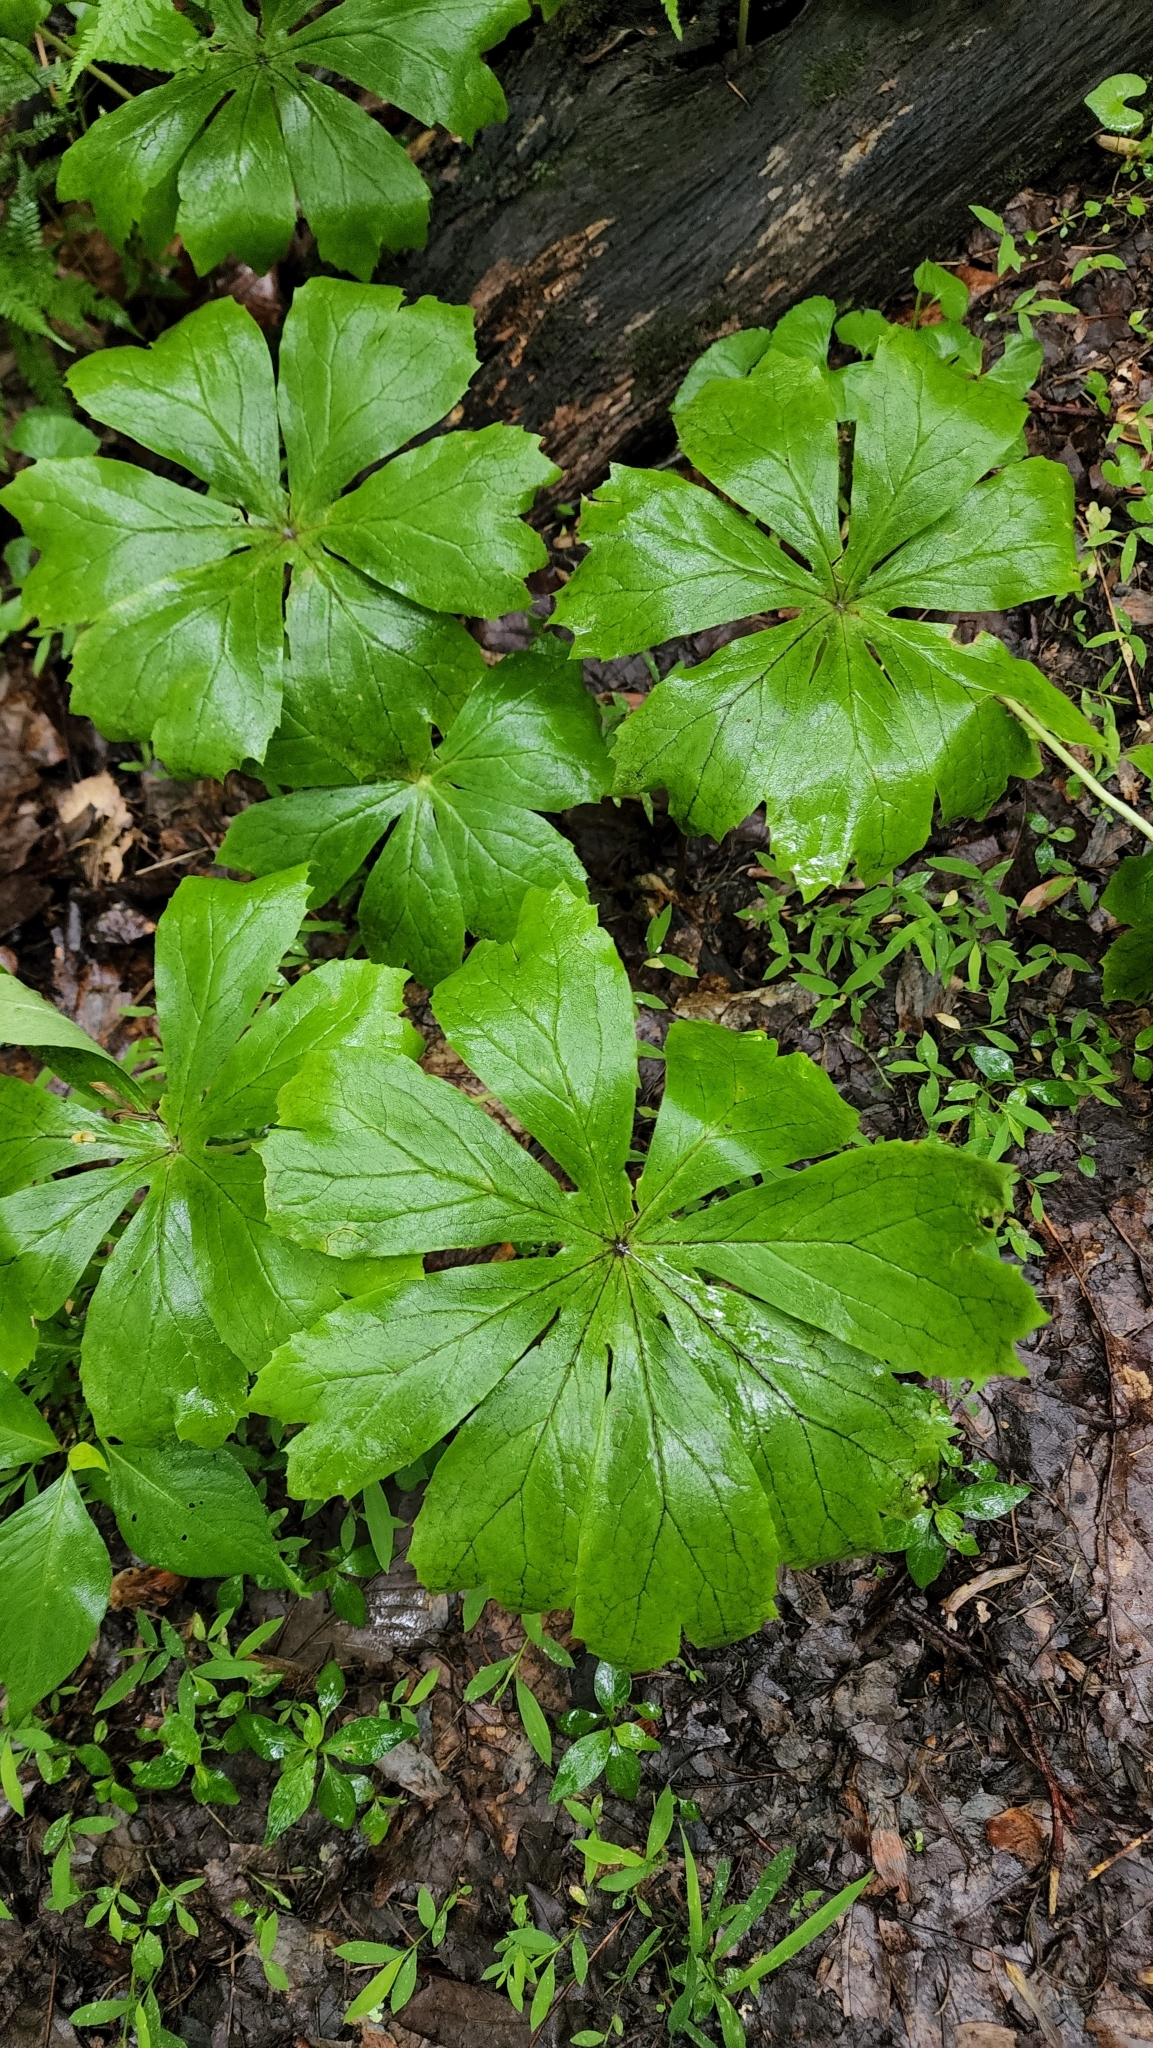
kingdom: Plantae
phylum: Tracheophyta
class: Magnoliopsida
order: Ranunculales
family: Berberidaceae
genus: Podophyllum
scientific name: Podophyllum peltatum
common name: Wild mandrake
